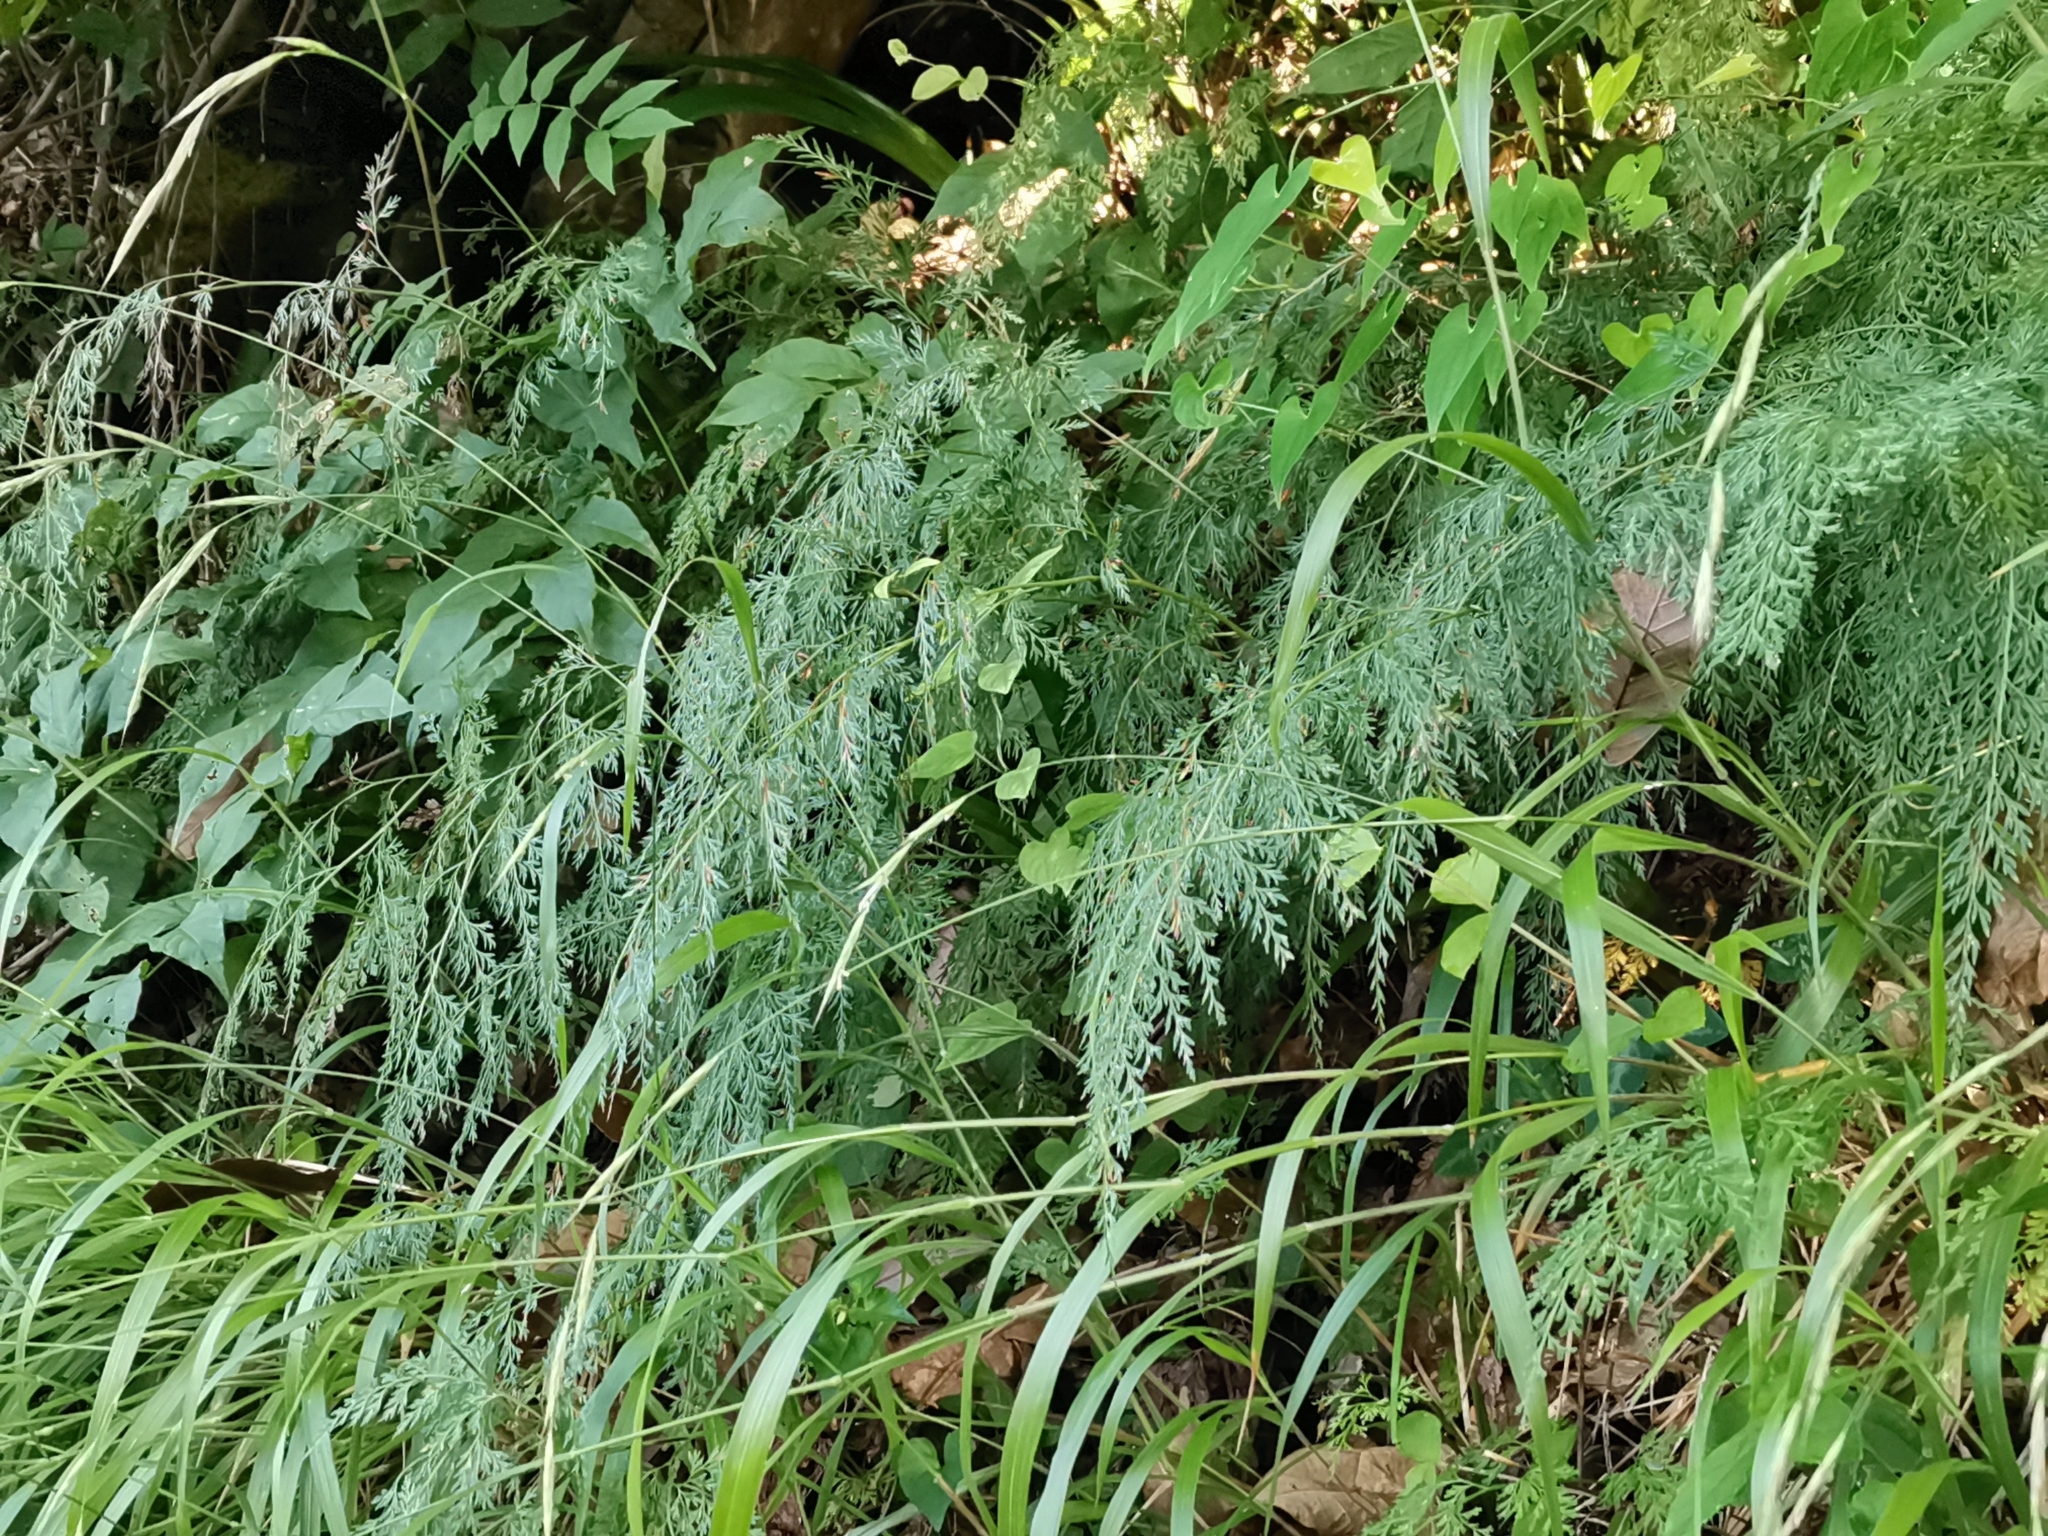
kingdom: Plantae
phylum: Tracheophyta
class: Polypodiopsida
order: Polypodiales
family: Pteridaceae
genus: Onychium
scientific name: Onychium japonicum
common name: Carrot fern
